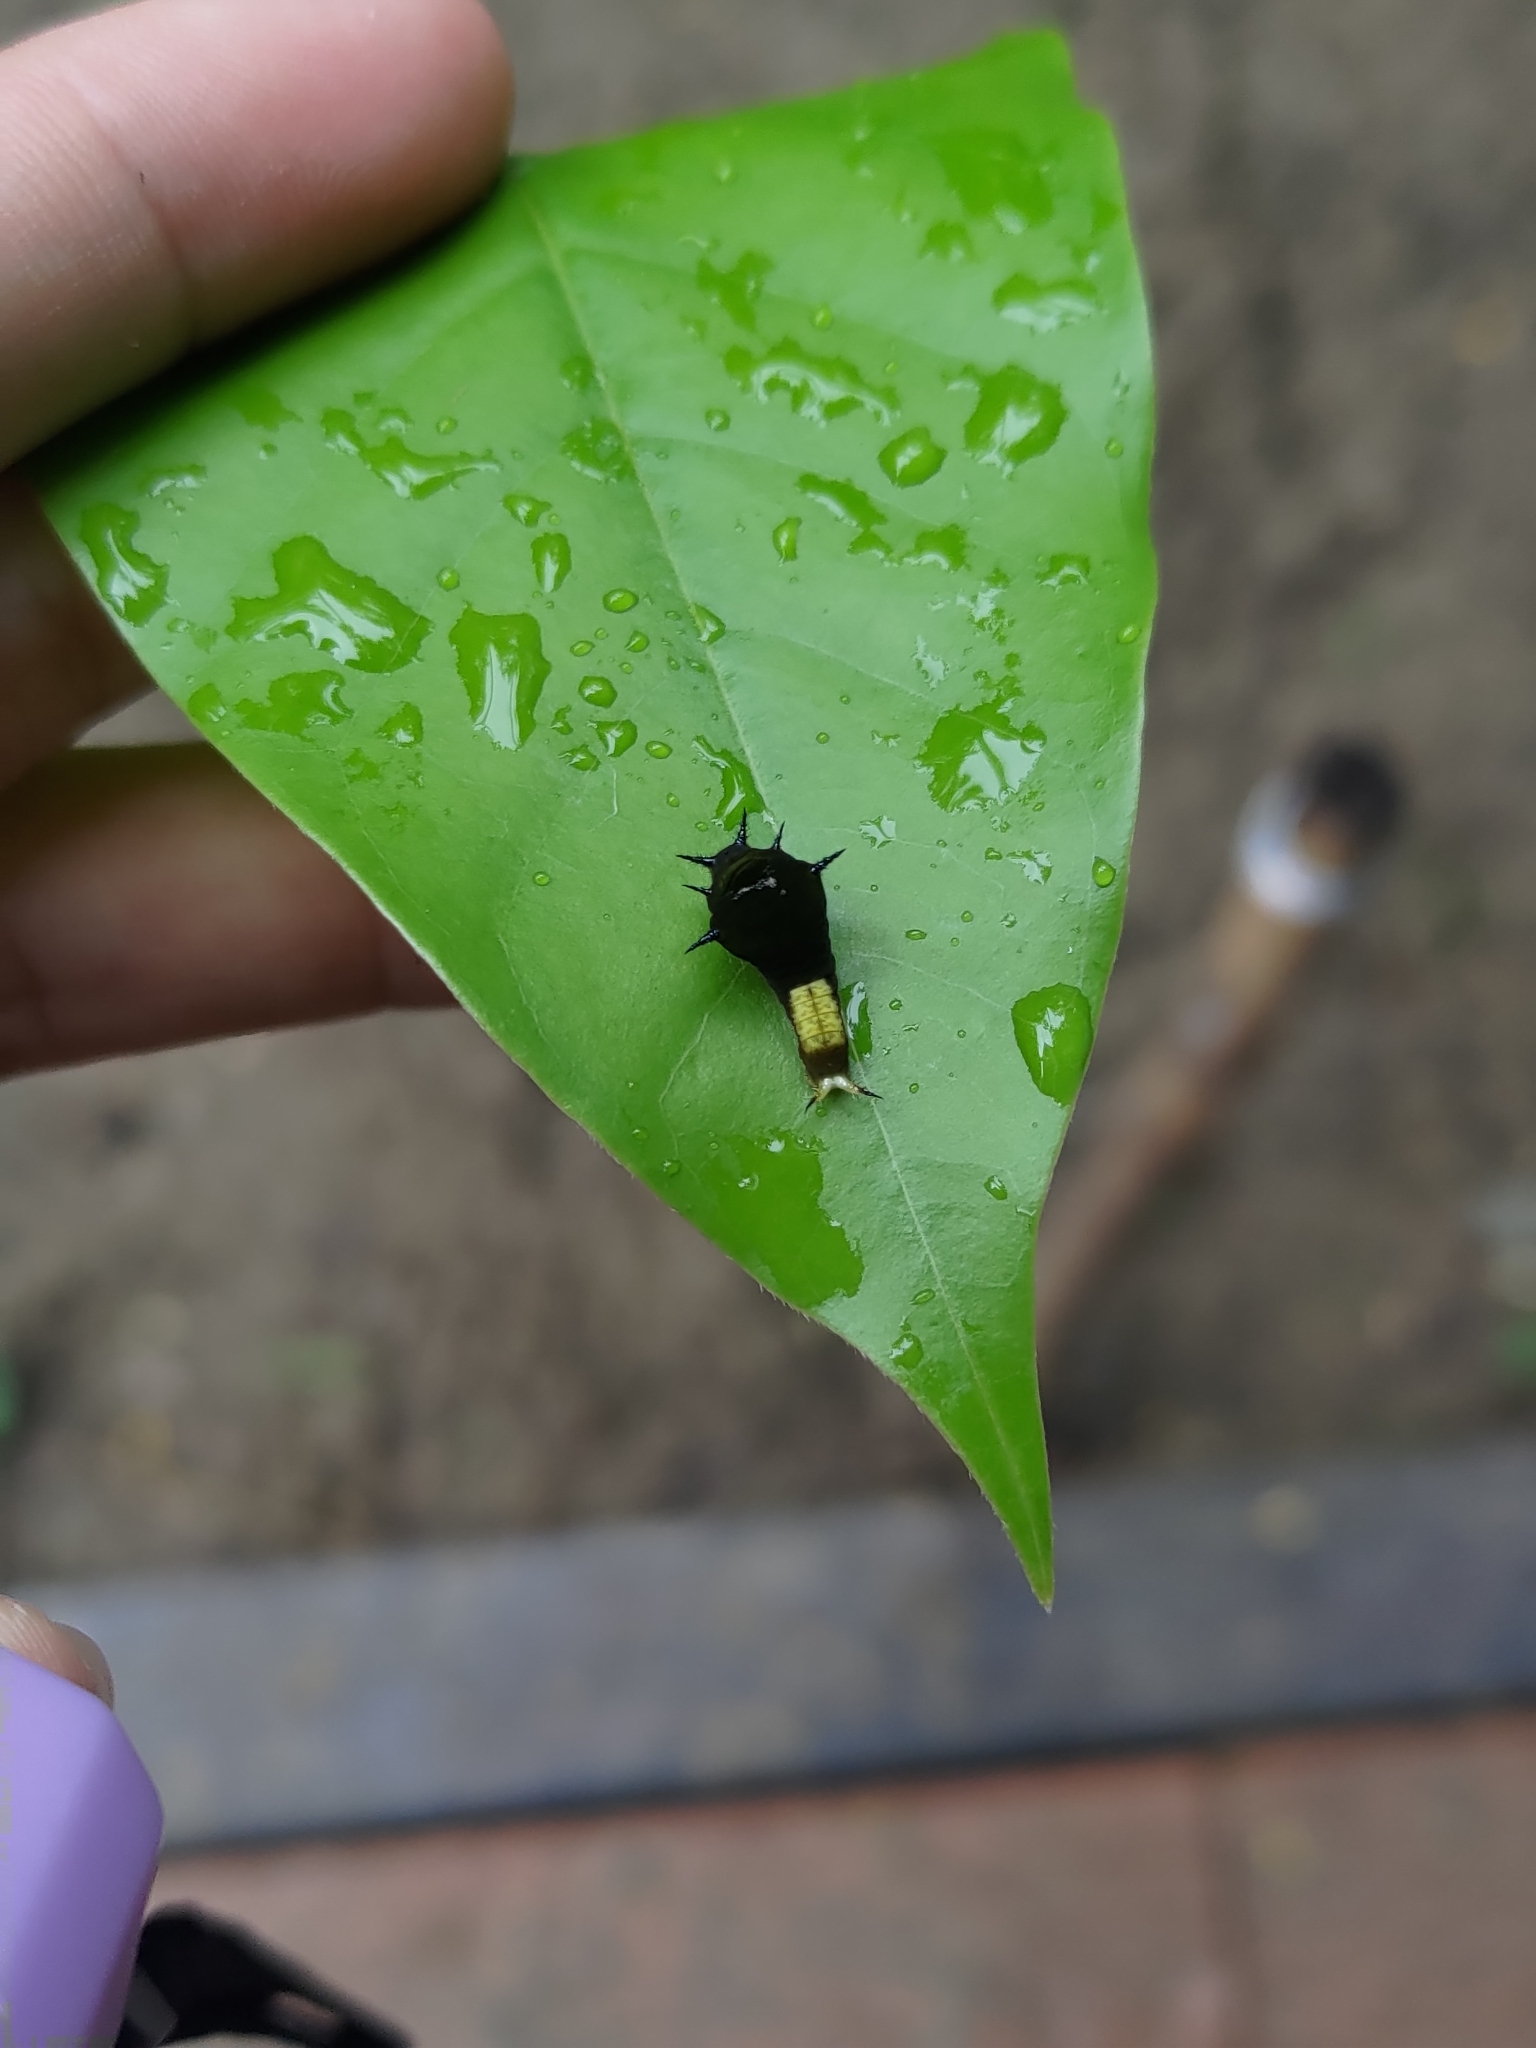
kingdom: Animalia
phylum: Arthropoda
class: Insecta
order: Lepidoptera
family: Papilionidae
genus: Graphium
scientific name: Graphium agamemnon
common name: Tailed jay
